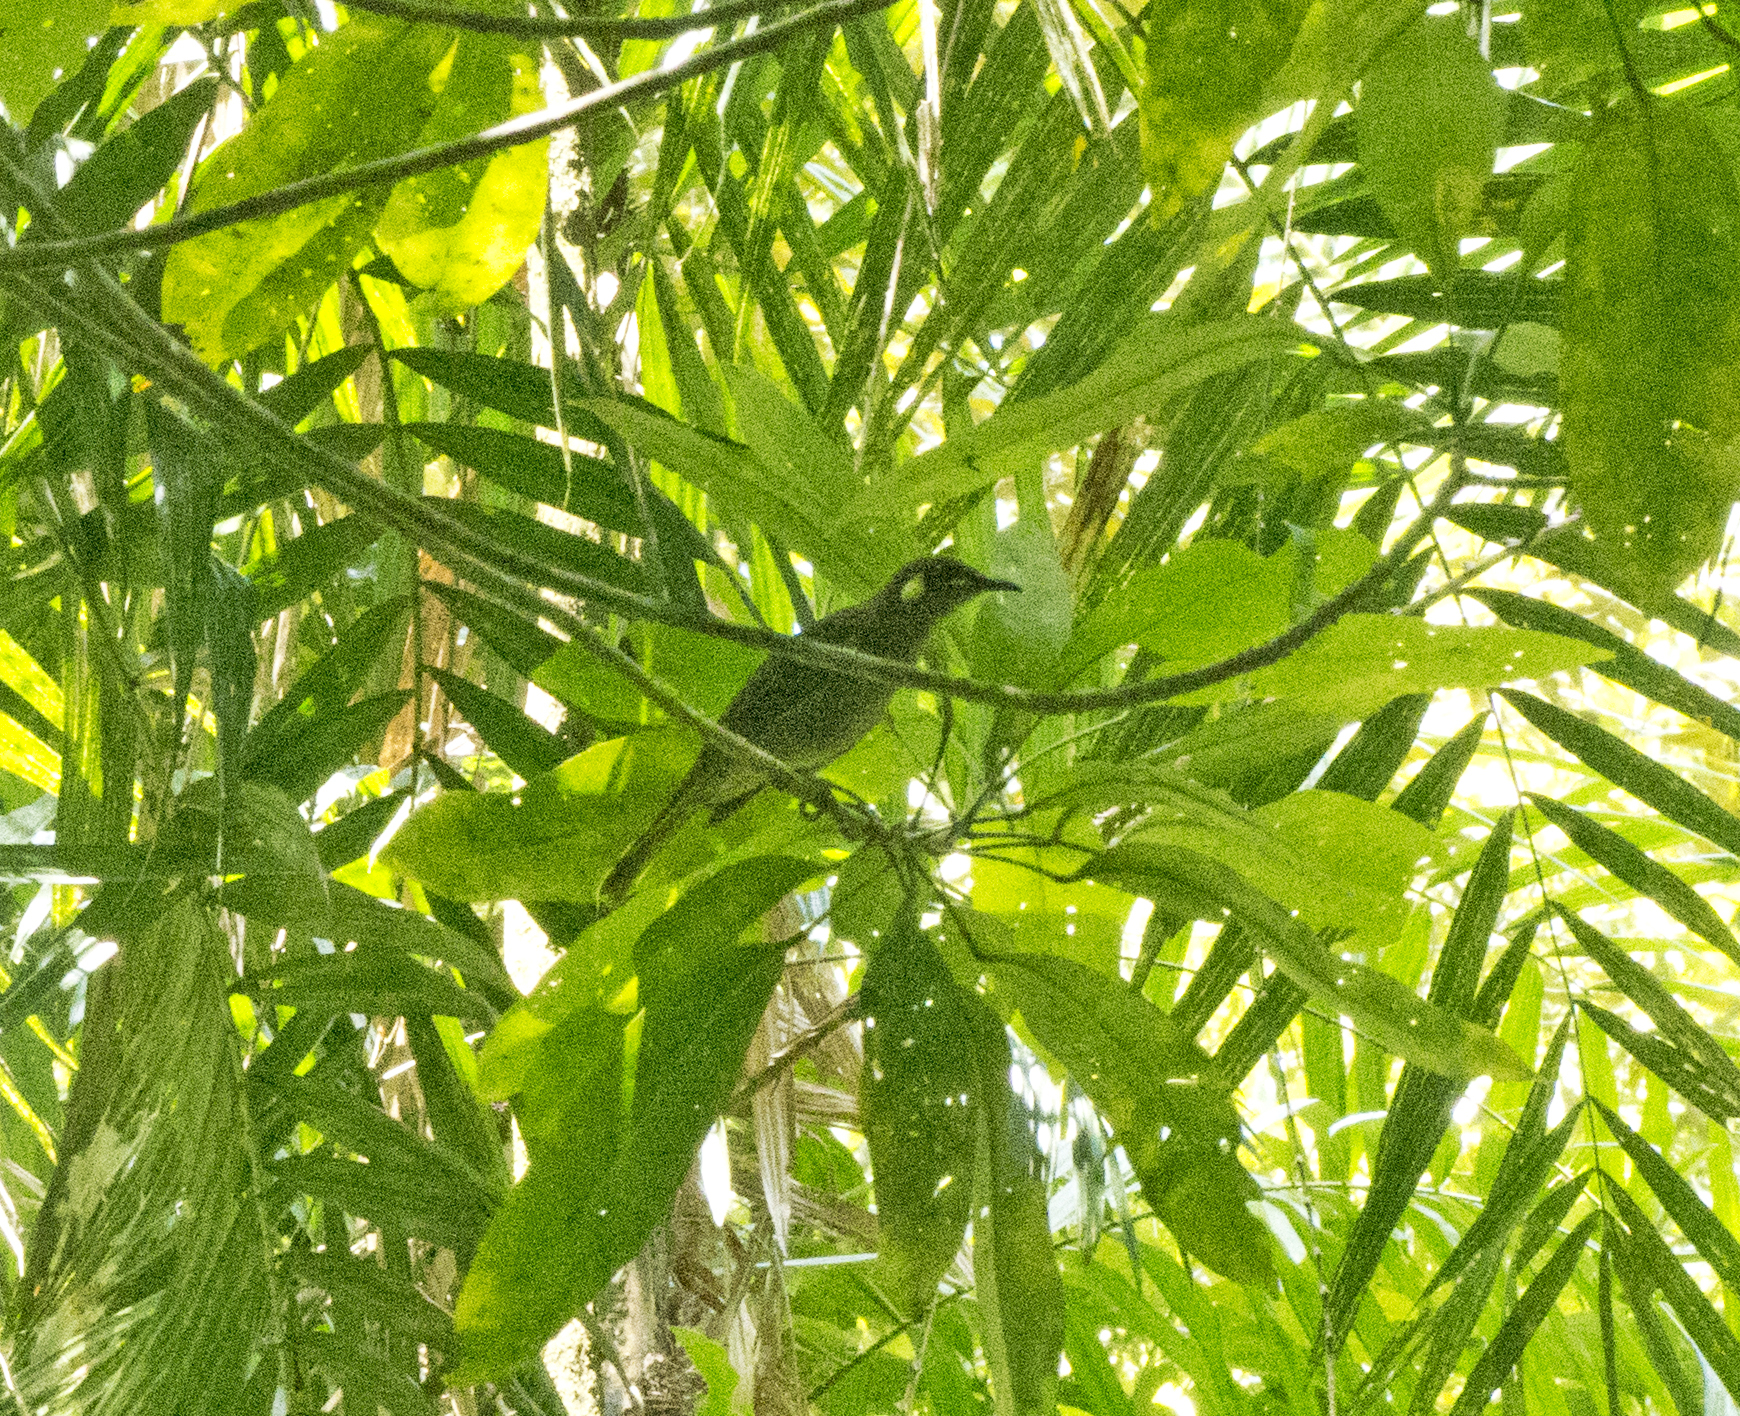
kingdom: Animalia
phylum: Chordata
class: Aves
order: Passeriformes
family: Meliphagidae
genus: Meliphaga
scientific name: Meliphaga notata
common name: Yellow-spotted honeyeater
